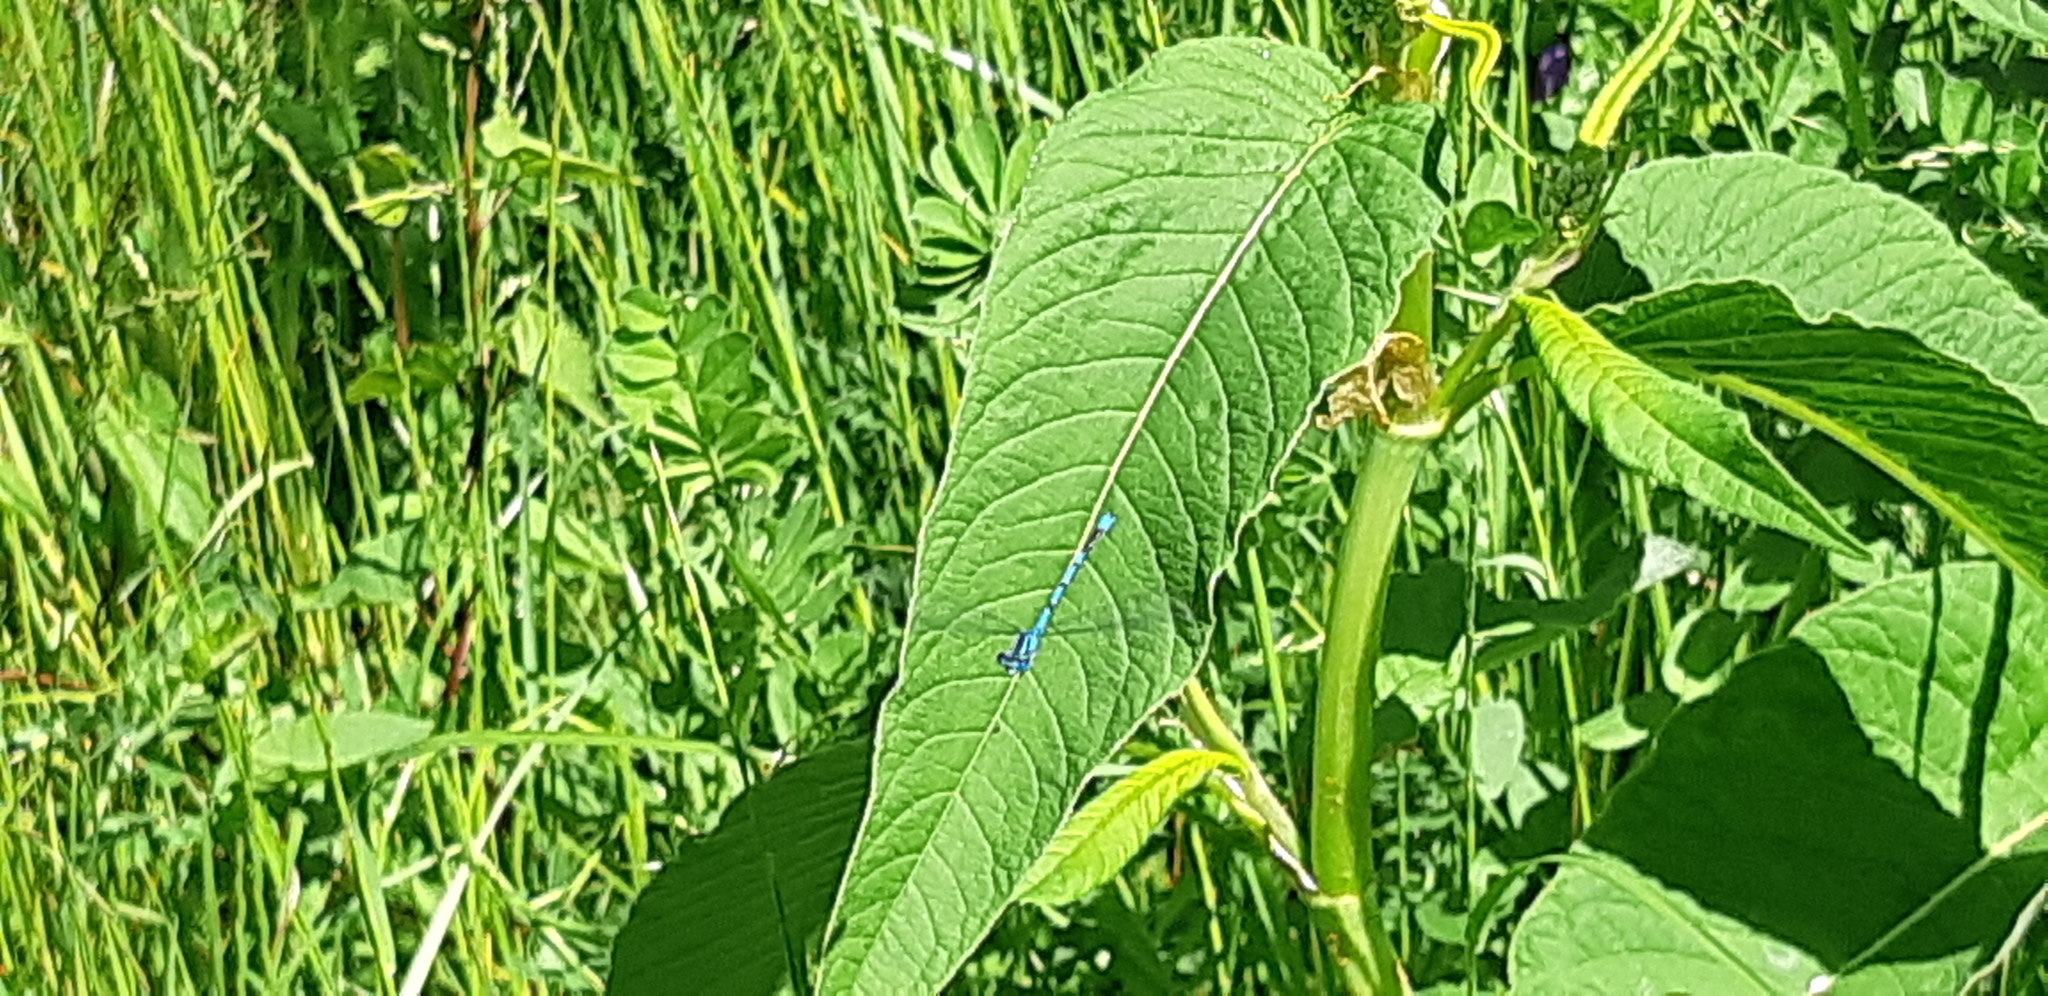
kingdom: Animalia
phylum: Arthropoda
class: Insecta
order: Odonata
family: Coenagrionidae
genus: Coenagrion
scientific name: Coenagrion puella
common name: Azure damselfly
